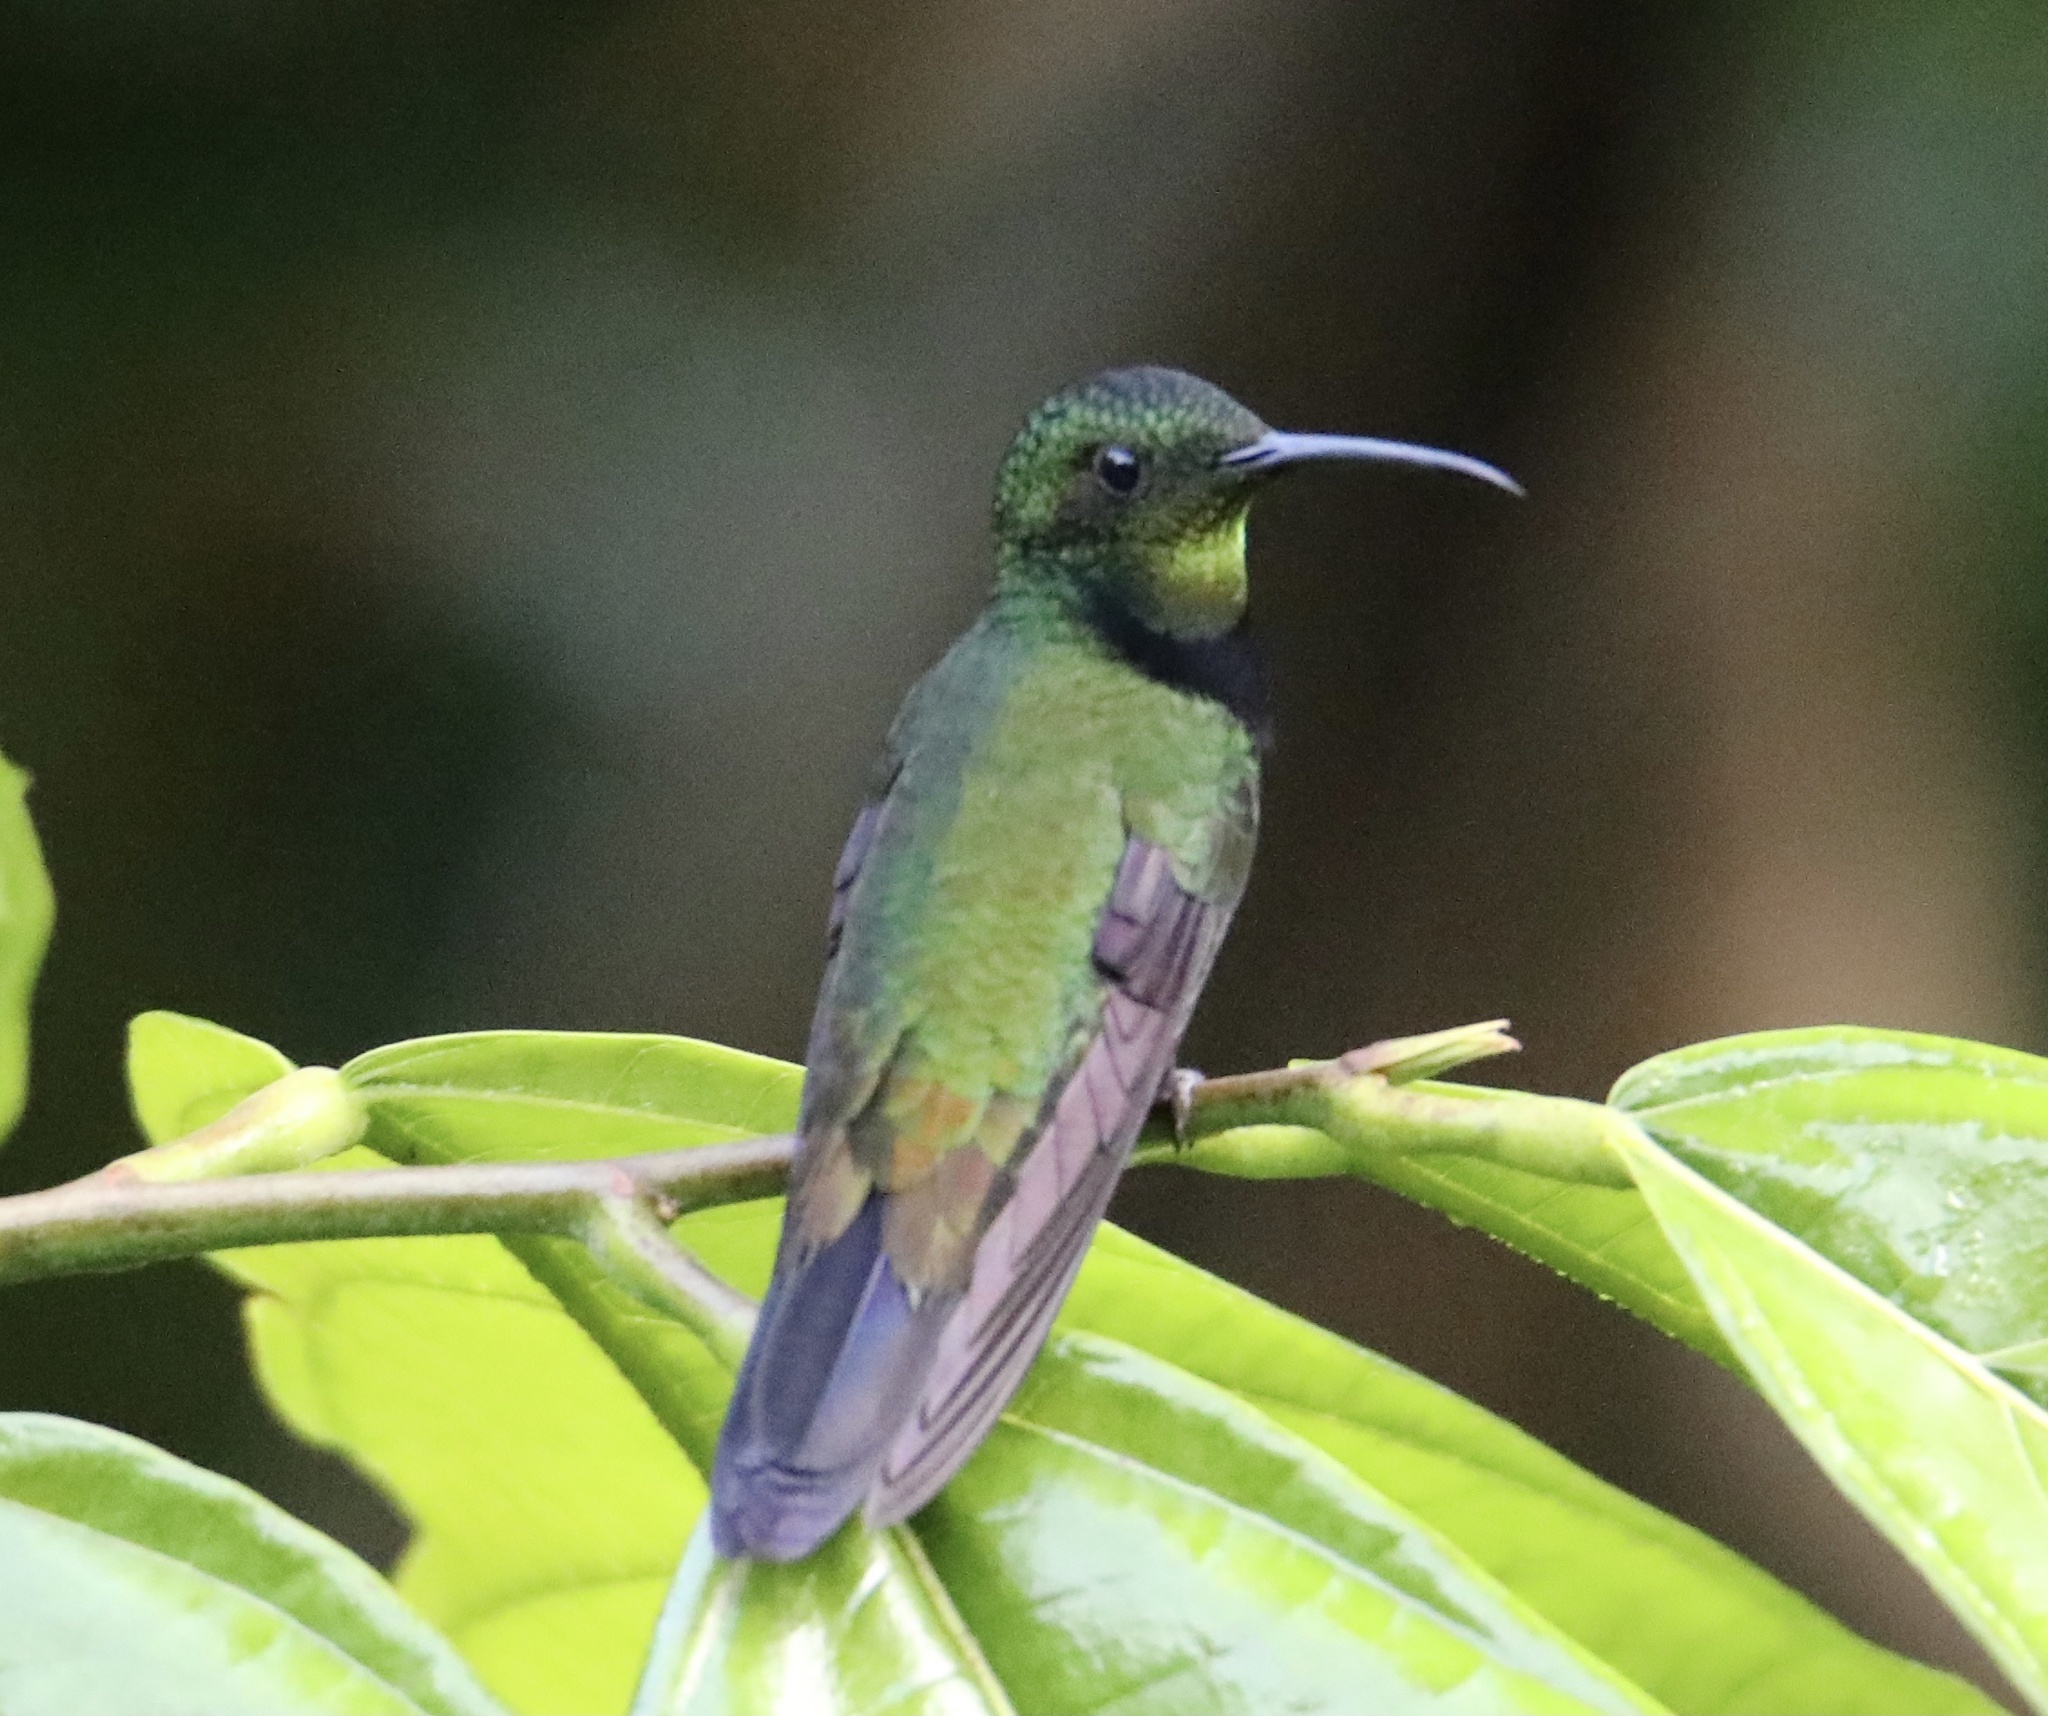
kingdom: Animalia
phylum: Chordata
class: Aves
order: Apodiformes
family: Trochilidae
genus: Anthracothorax
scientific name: Anthracothorax dominicus
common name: Antillean mango
